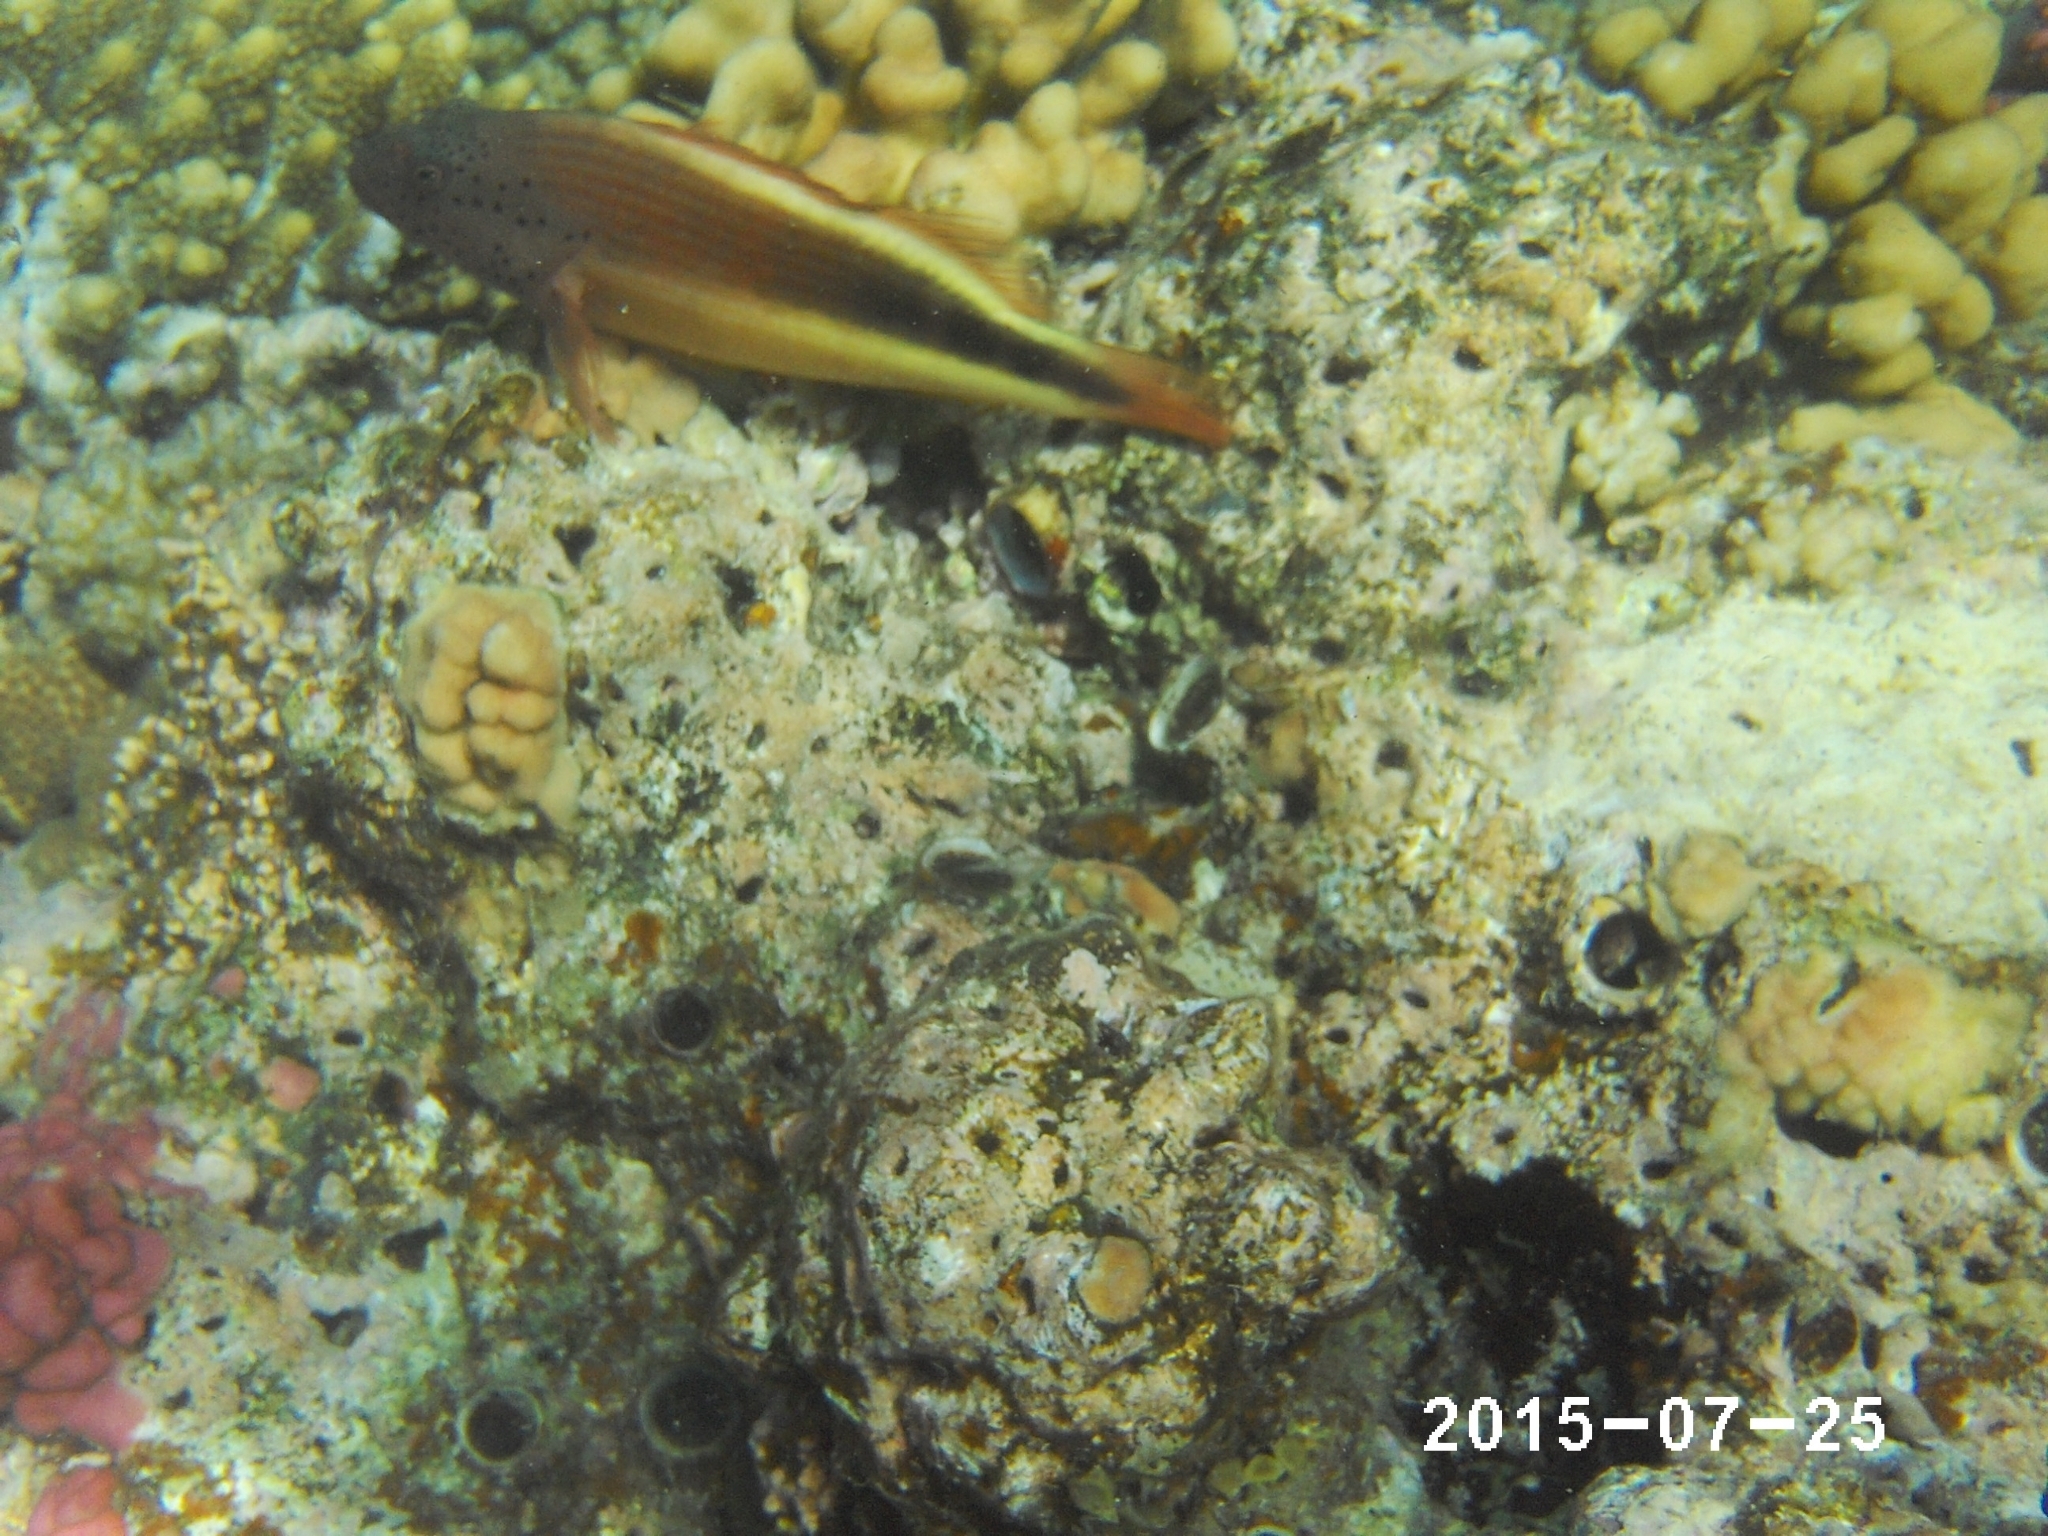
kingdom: Animalia
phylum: Chordata
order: Perciformes
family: Cirrhitidae
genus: Paracirrhites
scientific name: Paracirrhites forsteri
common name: Freckled hawkfish
